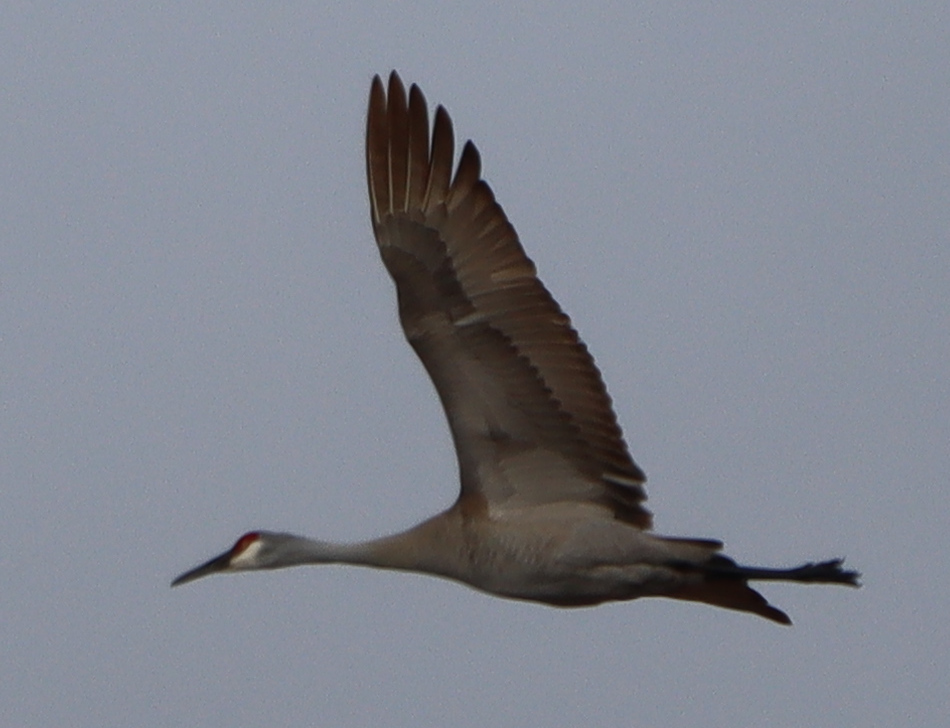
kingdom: Animalia
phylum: Chordata
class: Aves
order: Gruiformes
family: Gruidae
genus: Grus
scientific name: Grus canadensis
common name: Sandhill crane
